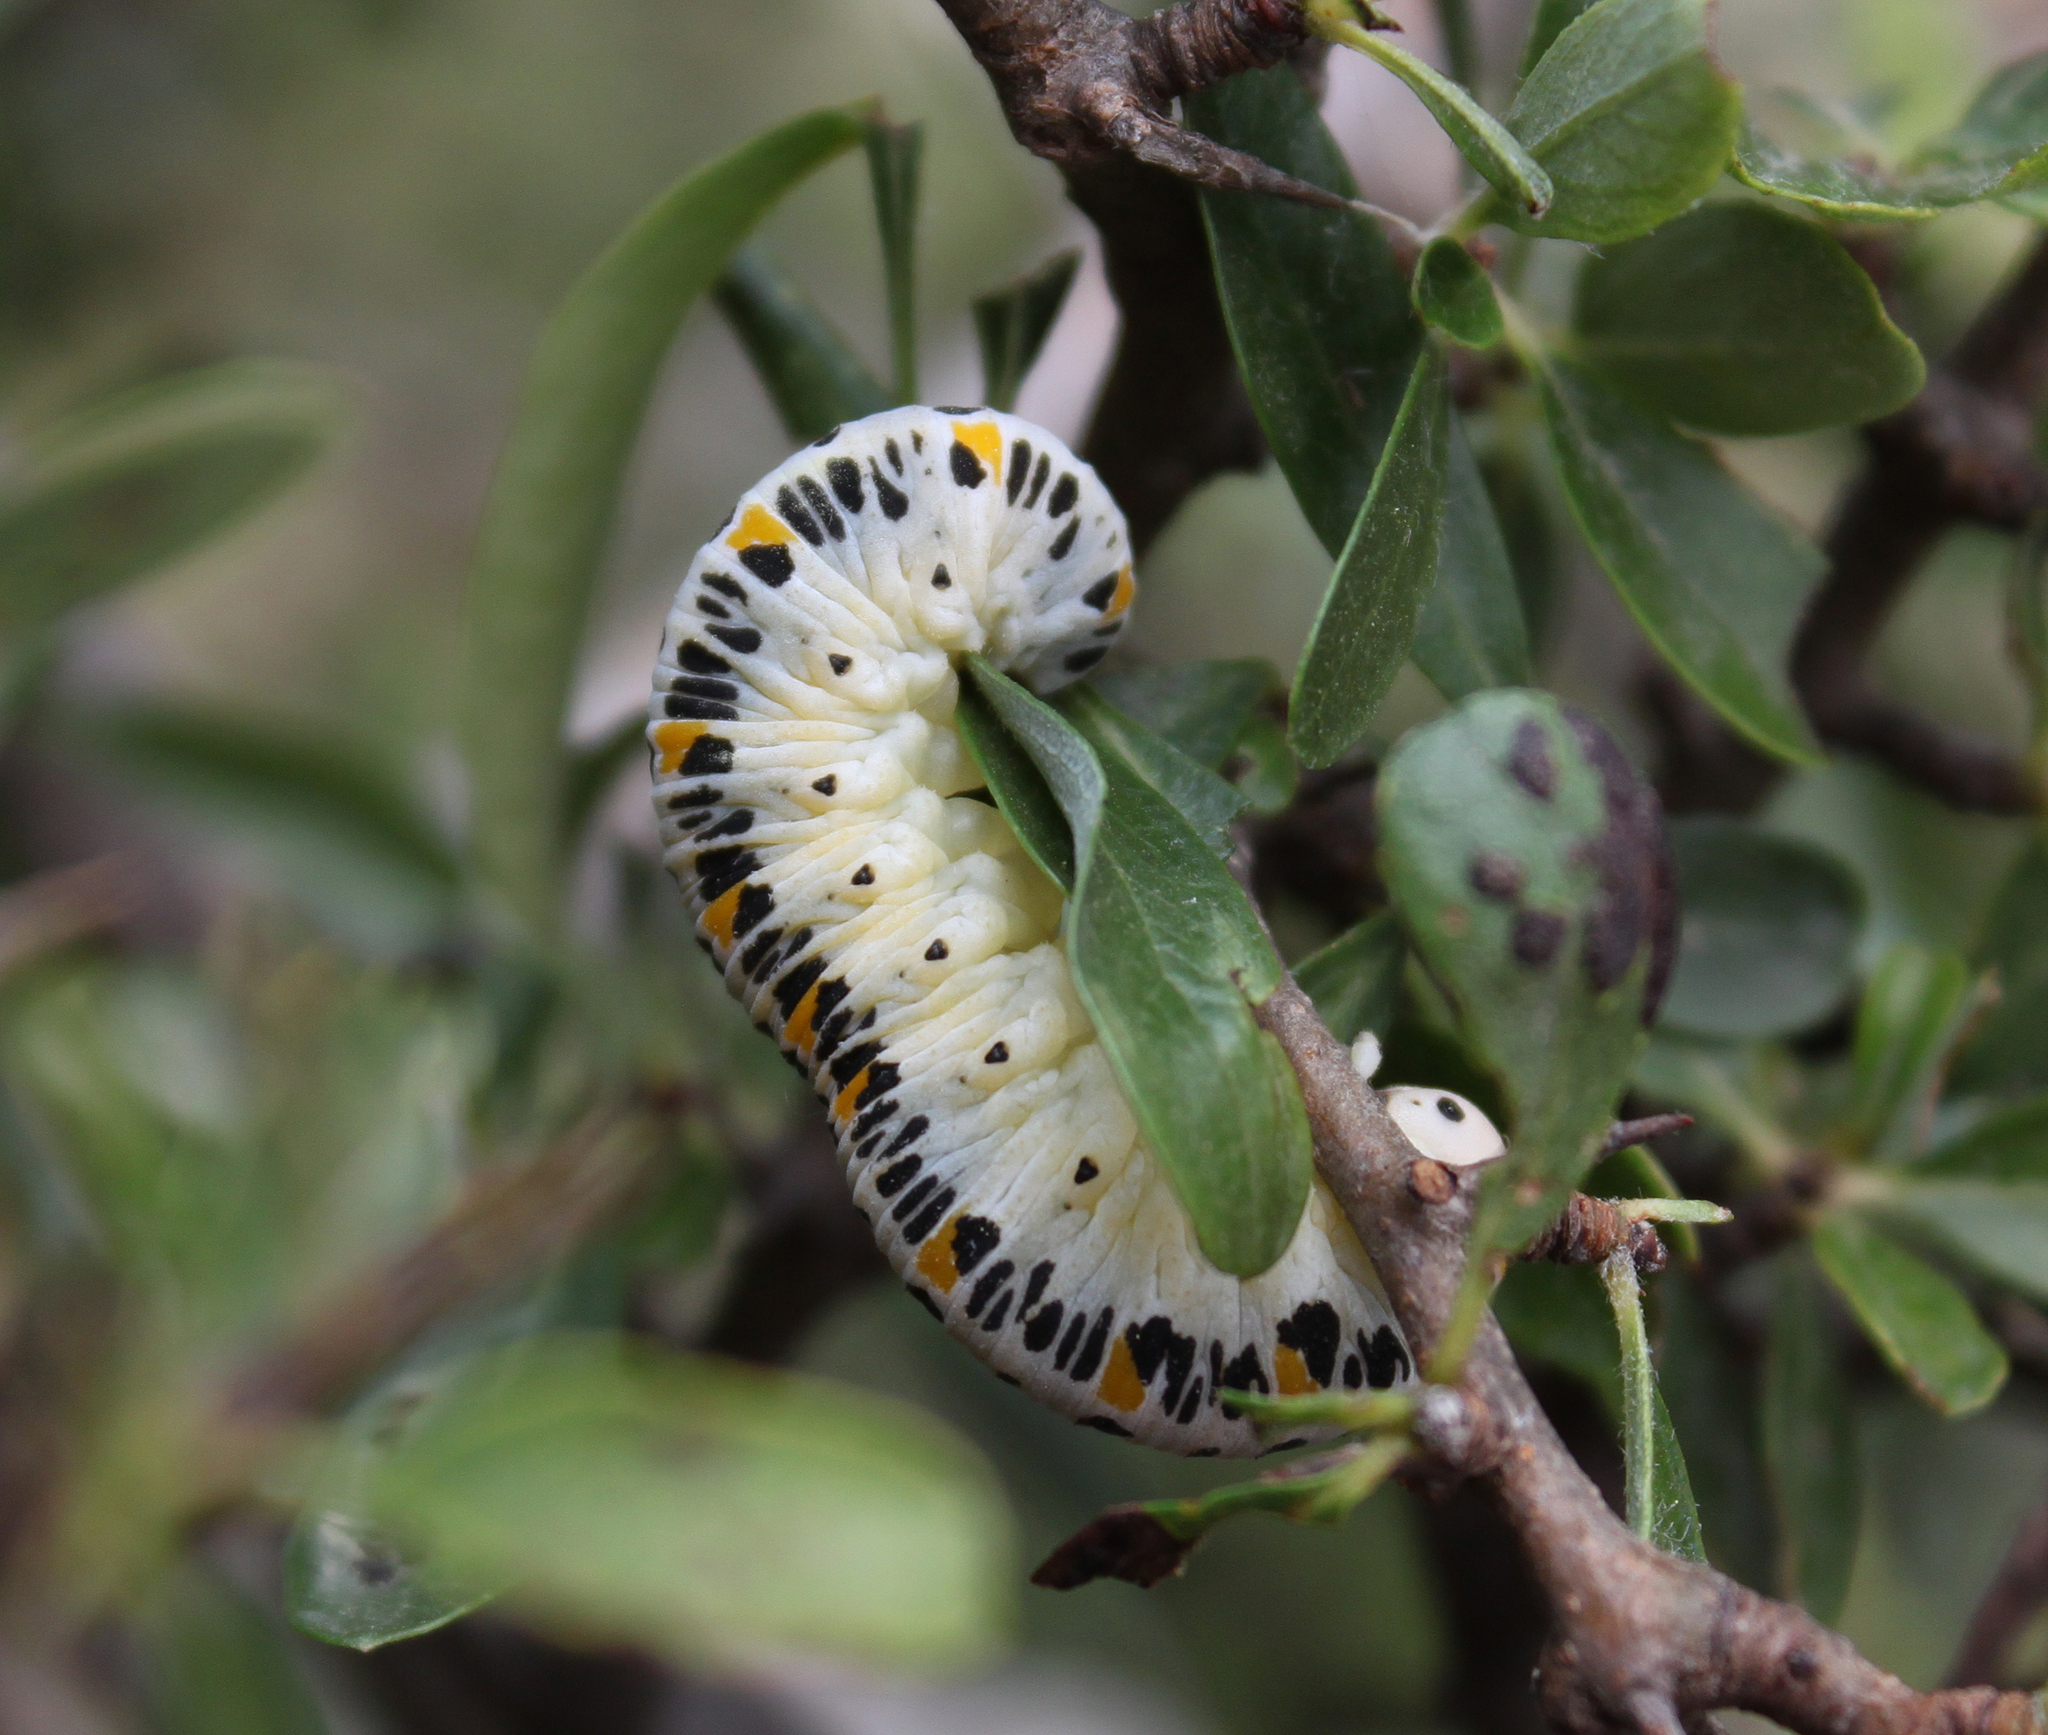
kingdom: Animalia
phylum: Arthropoda
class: Insecta
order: Hymenoptera
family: Cimbicidae
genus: Cimbex
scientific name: Cimbex quadrimaculatus
